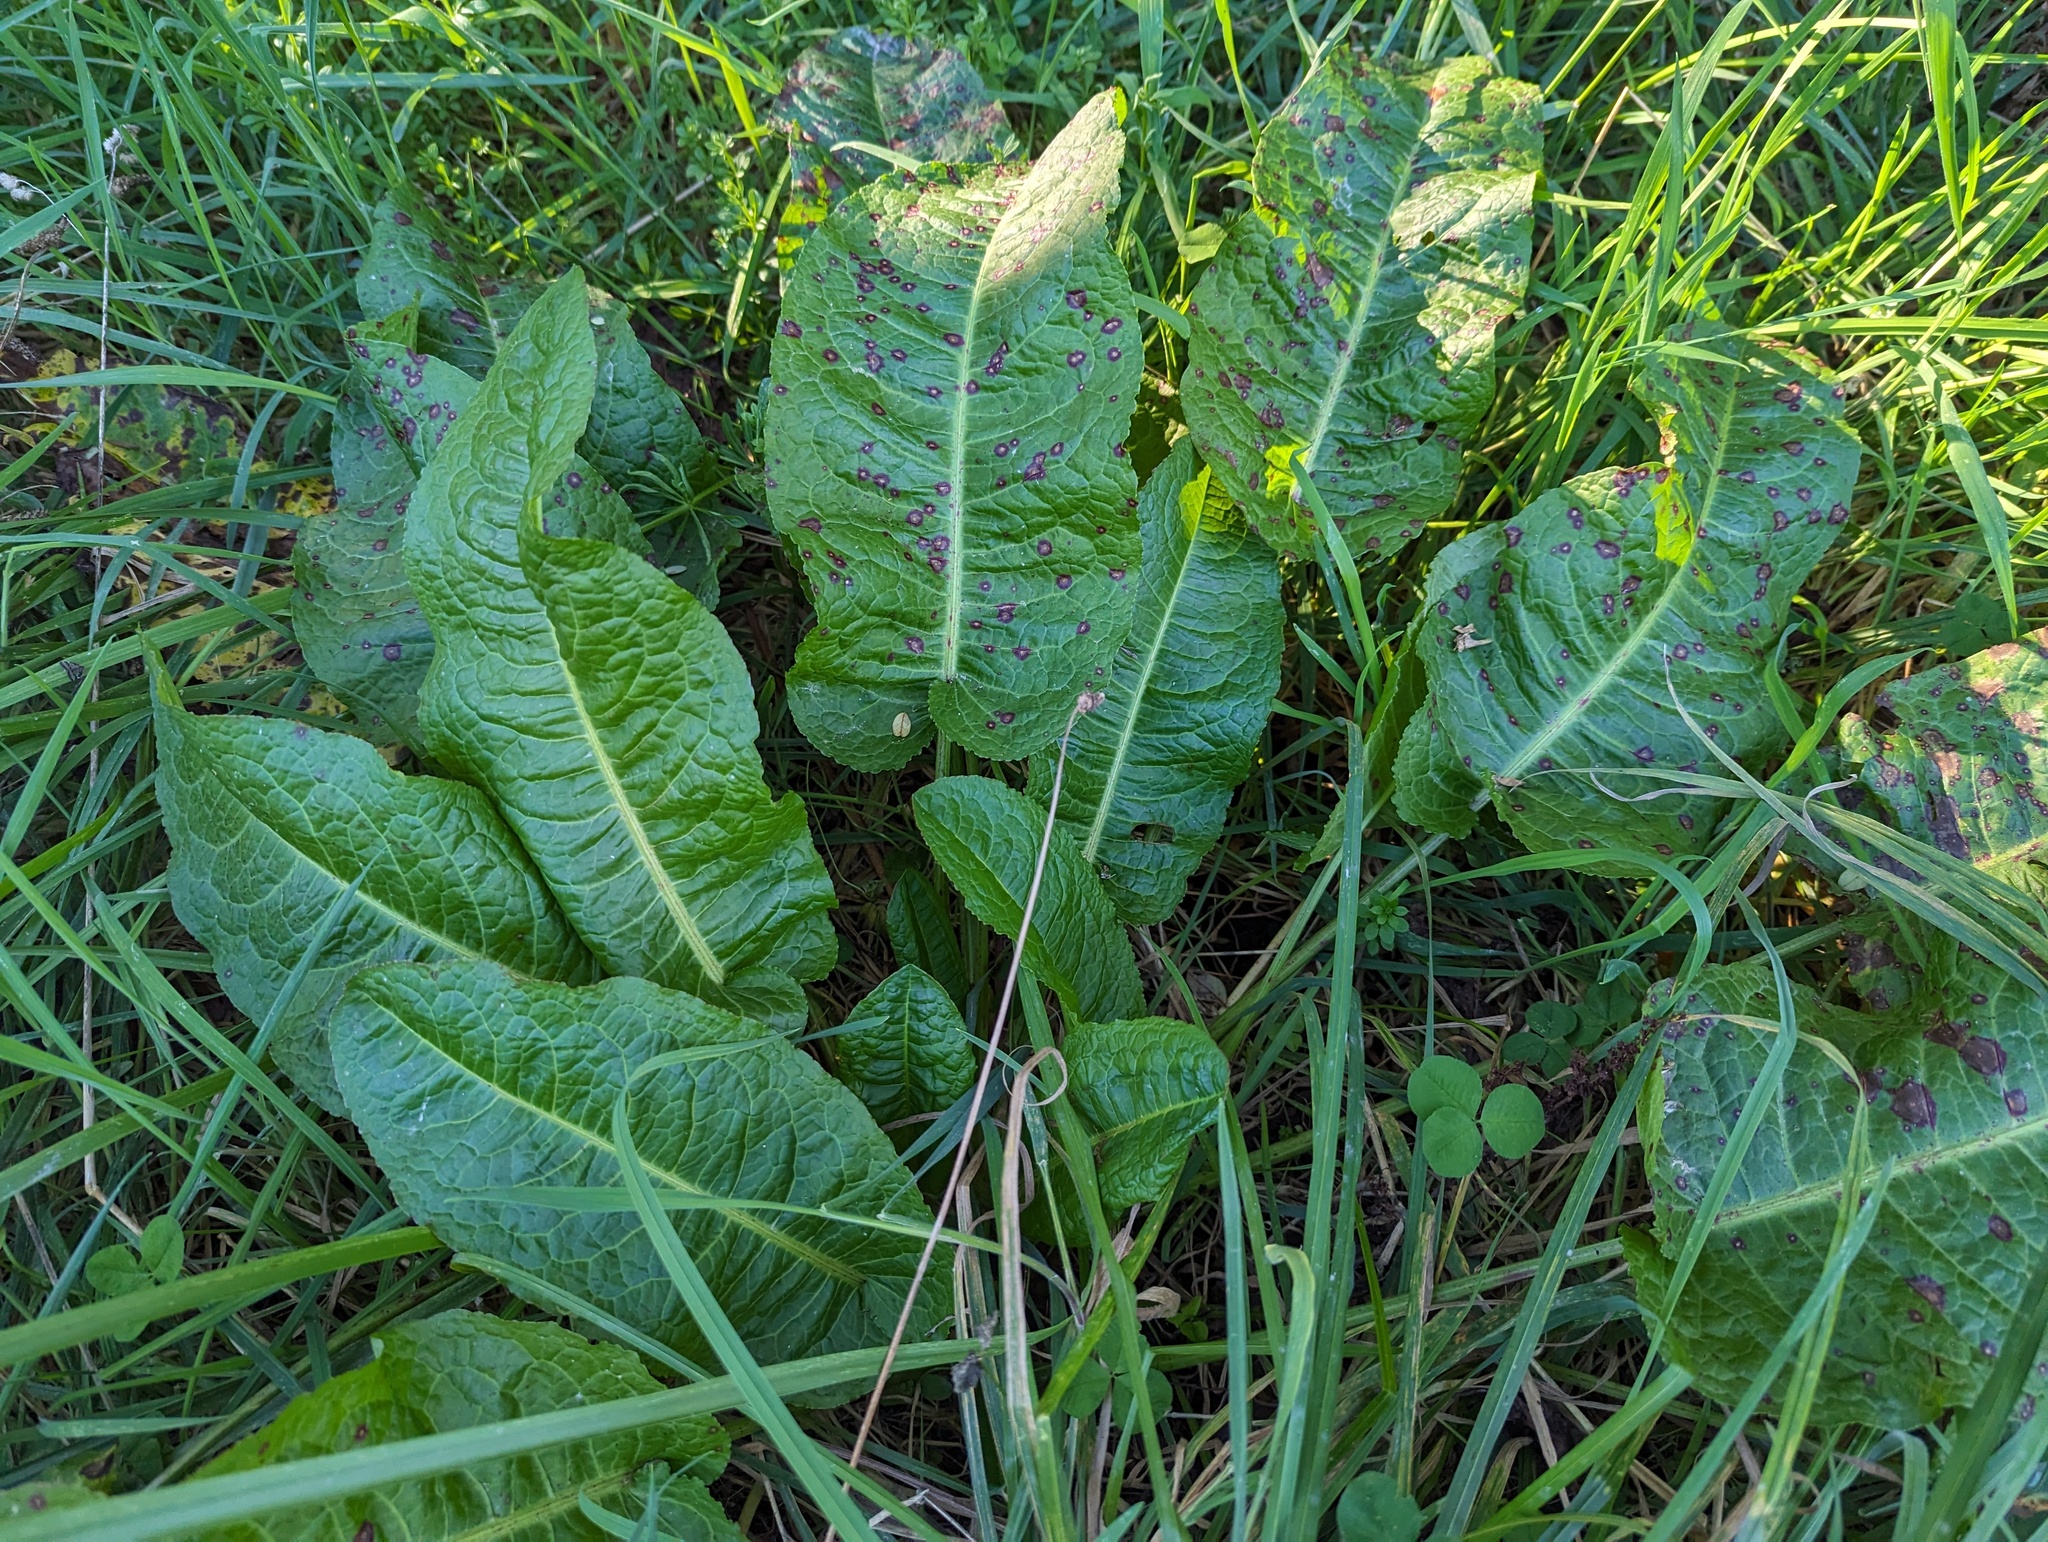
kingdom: Plantae
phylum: Tracheophyta
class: Magnoliopsida
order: Caryophyllales
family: Polygonaceae
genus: Rumex
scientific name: Rumex obtusifolius
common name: Bitter dock
